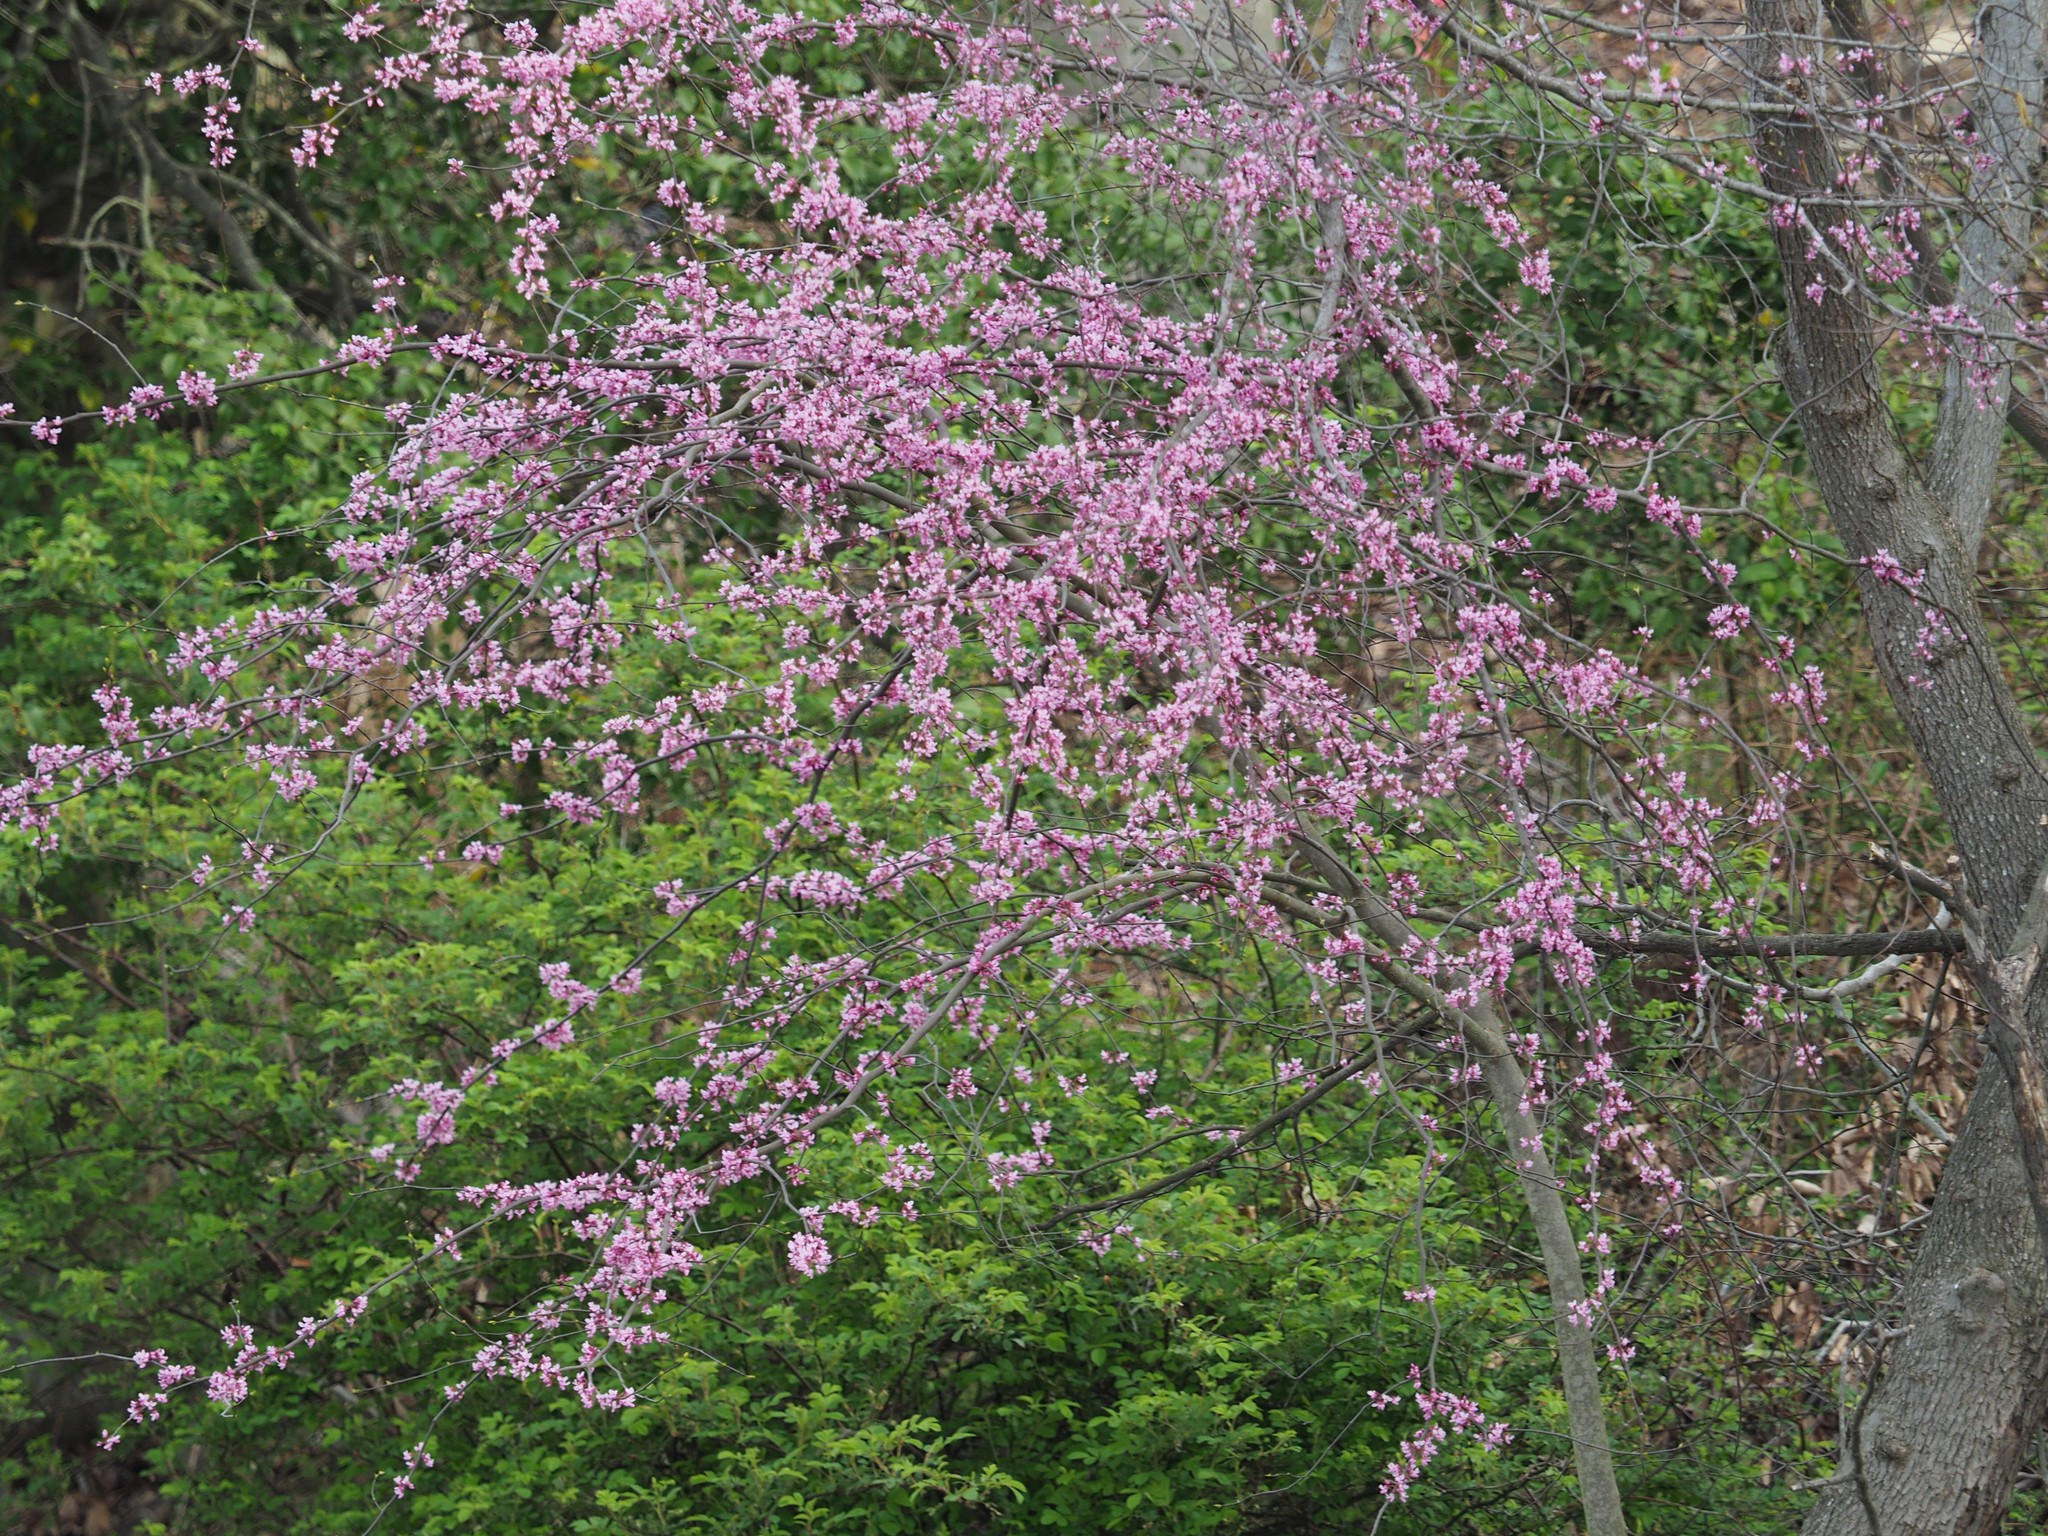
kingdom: Plantae
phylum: Tracheophyta
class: Magnoliopsida
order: Fabales
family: Fabaceae
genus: Cercis
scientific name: Cercis canadensis
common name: Eastern redbud
